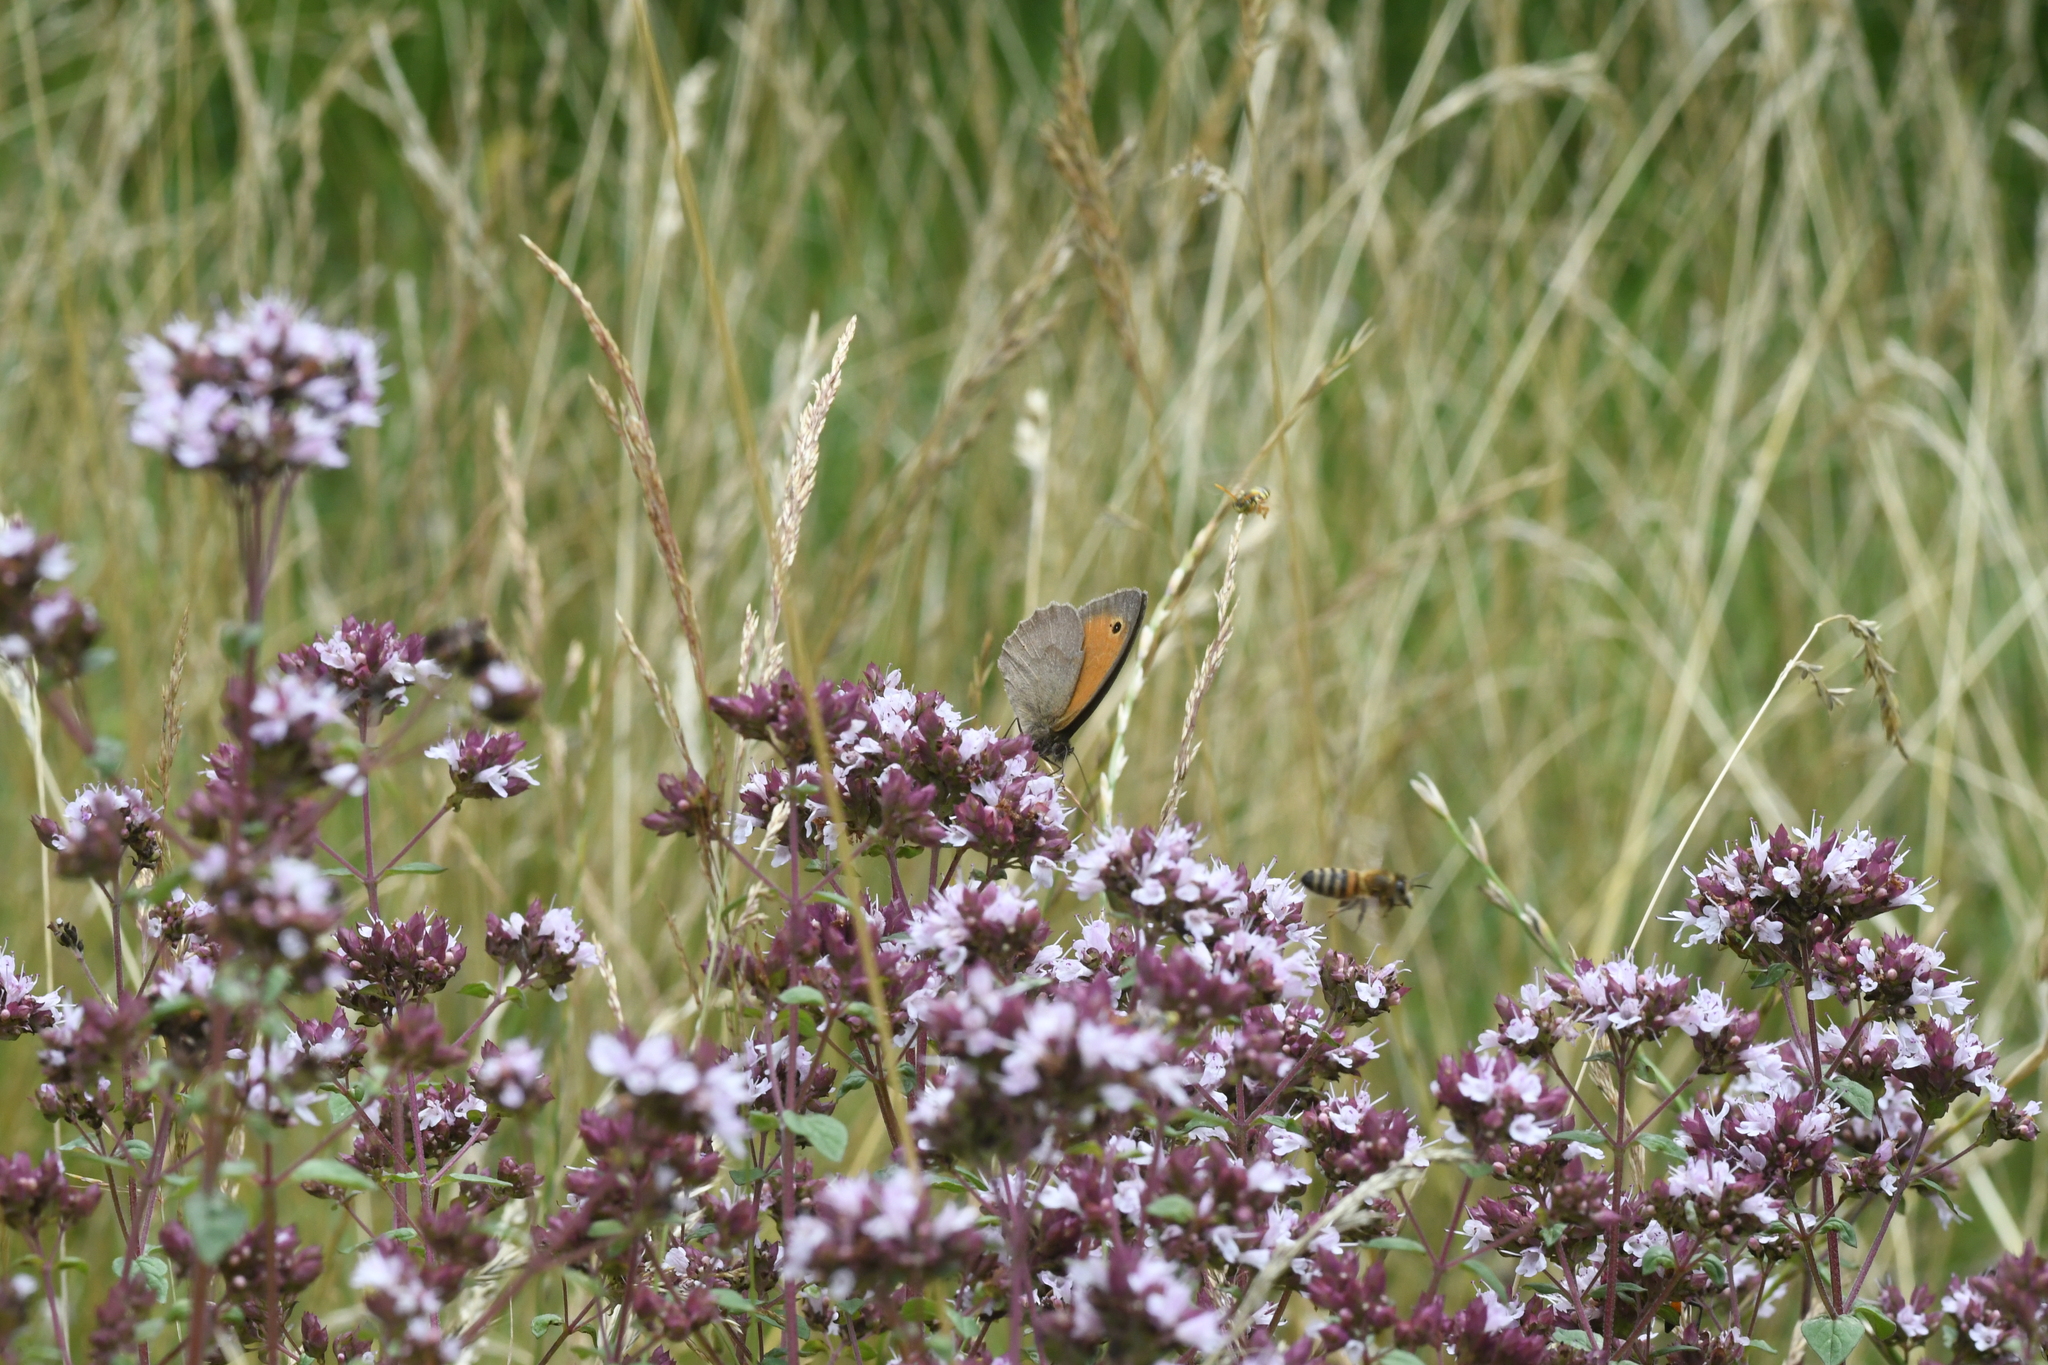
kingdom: Animalia
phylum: Arthropoda
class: Insecta
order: Lepidoptera
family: Nymphalidae
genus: Maniola
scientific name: Maniola jurtina
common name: Meadow brown
